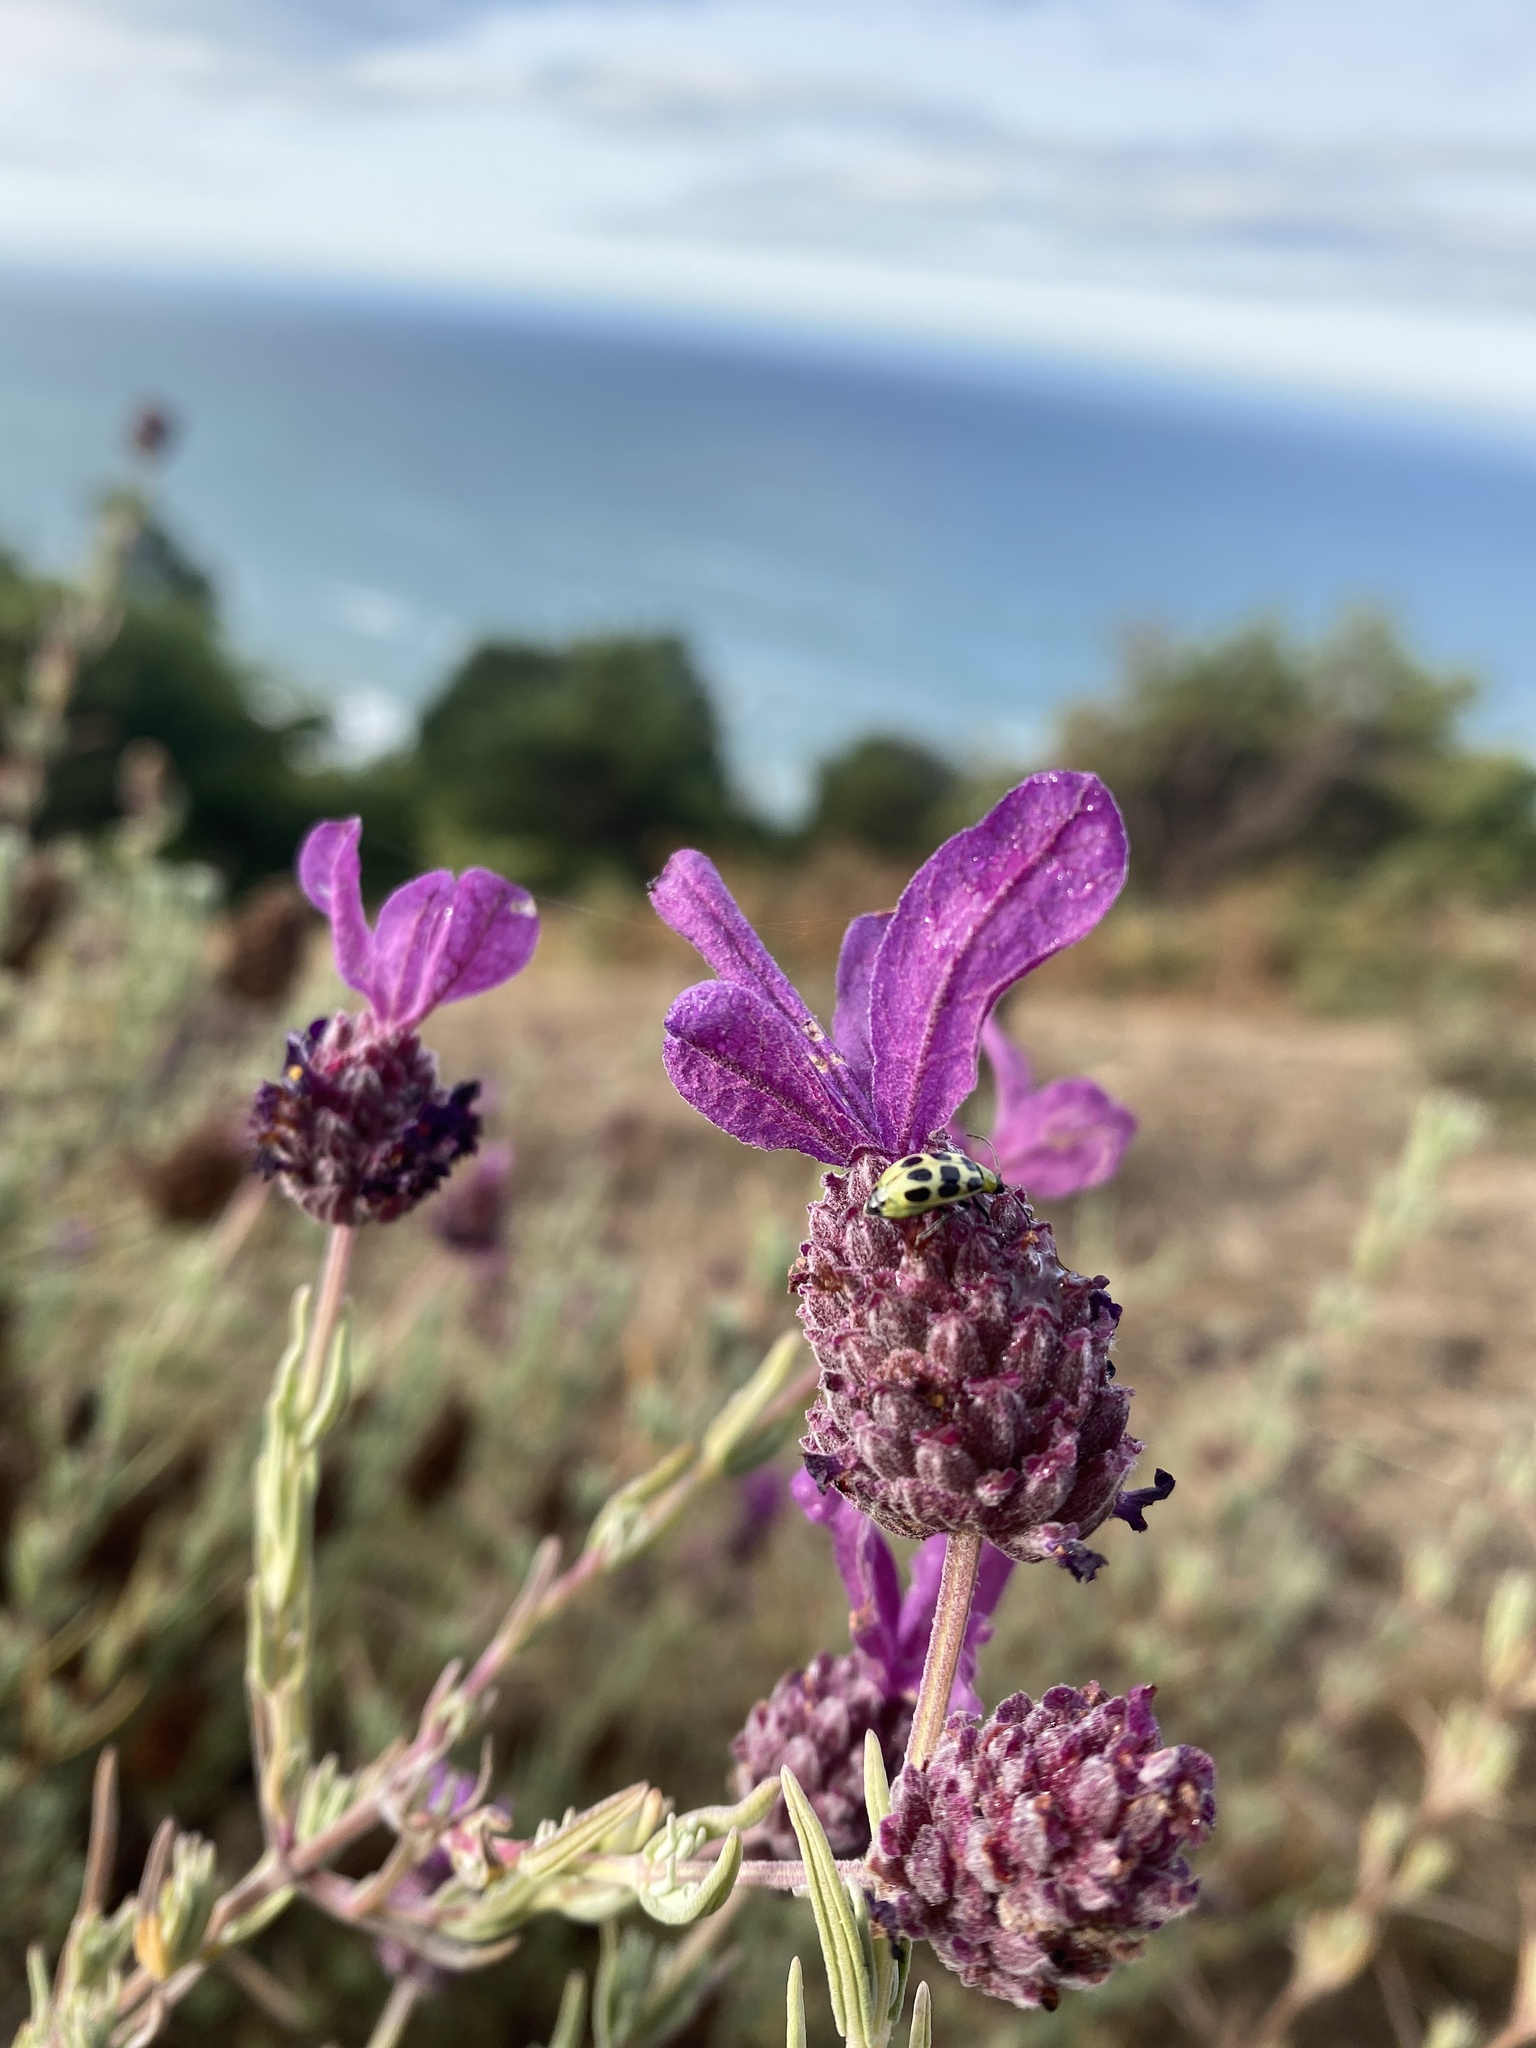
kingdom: Animalia
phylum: Arthropoda
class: Insecta
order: Coleoptera
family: Chrysomelidae
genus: Diabrotica
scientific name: Diabrotica undecimpunctata
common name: Spotted cucumber beetle
